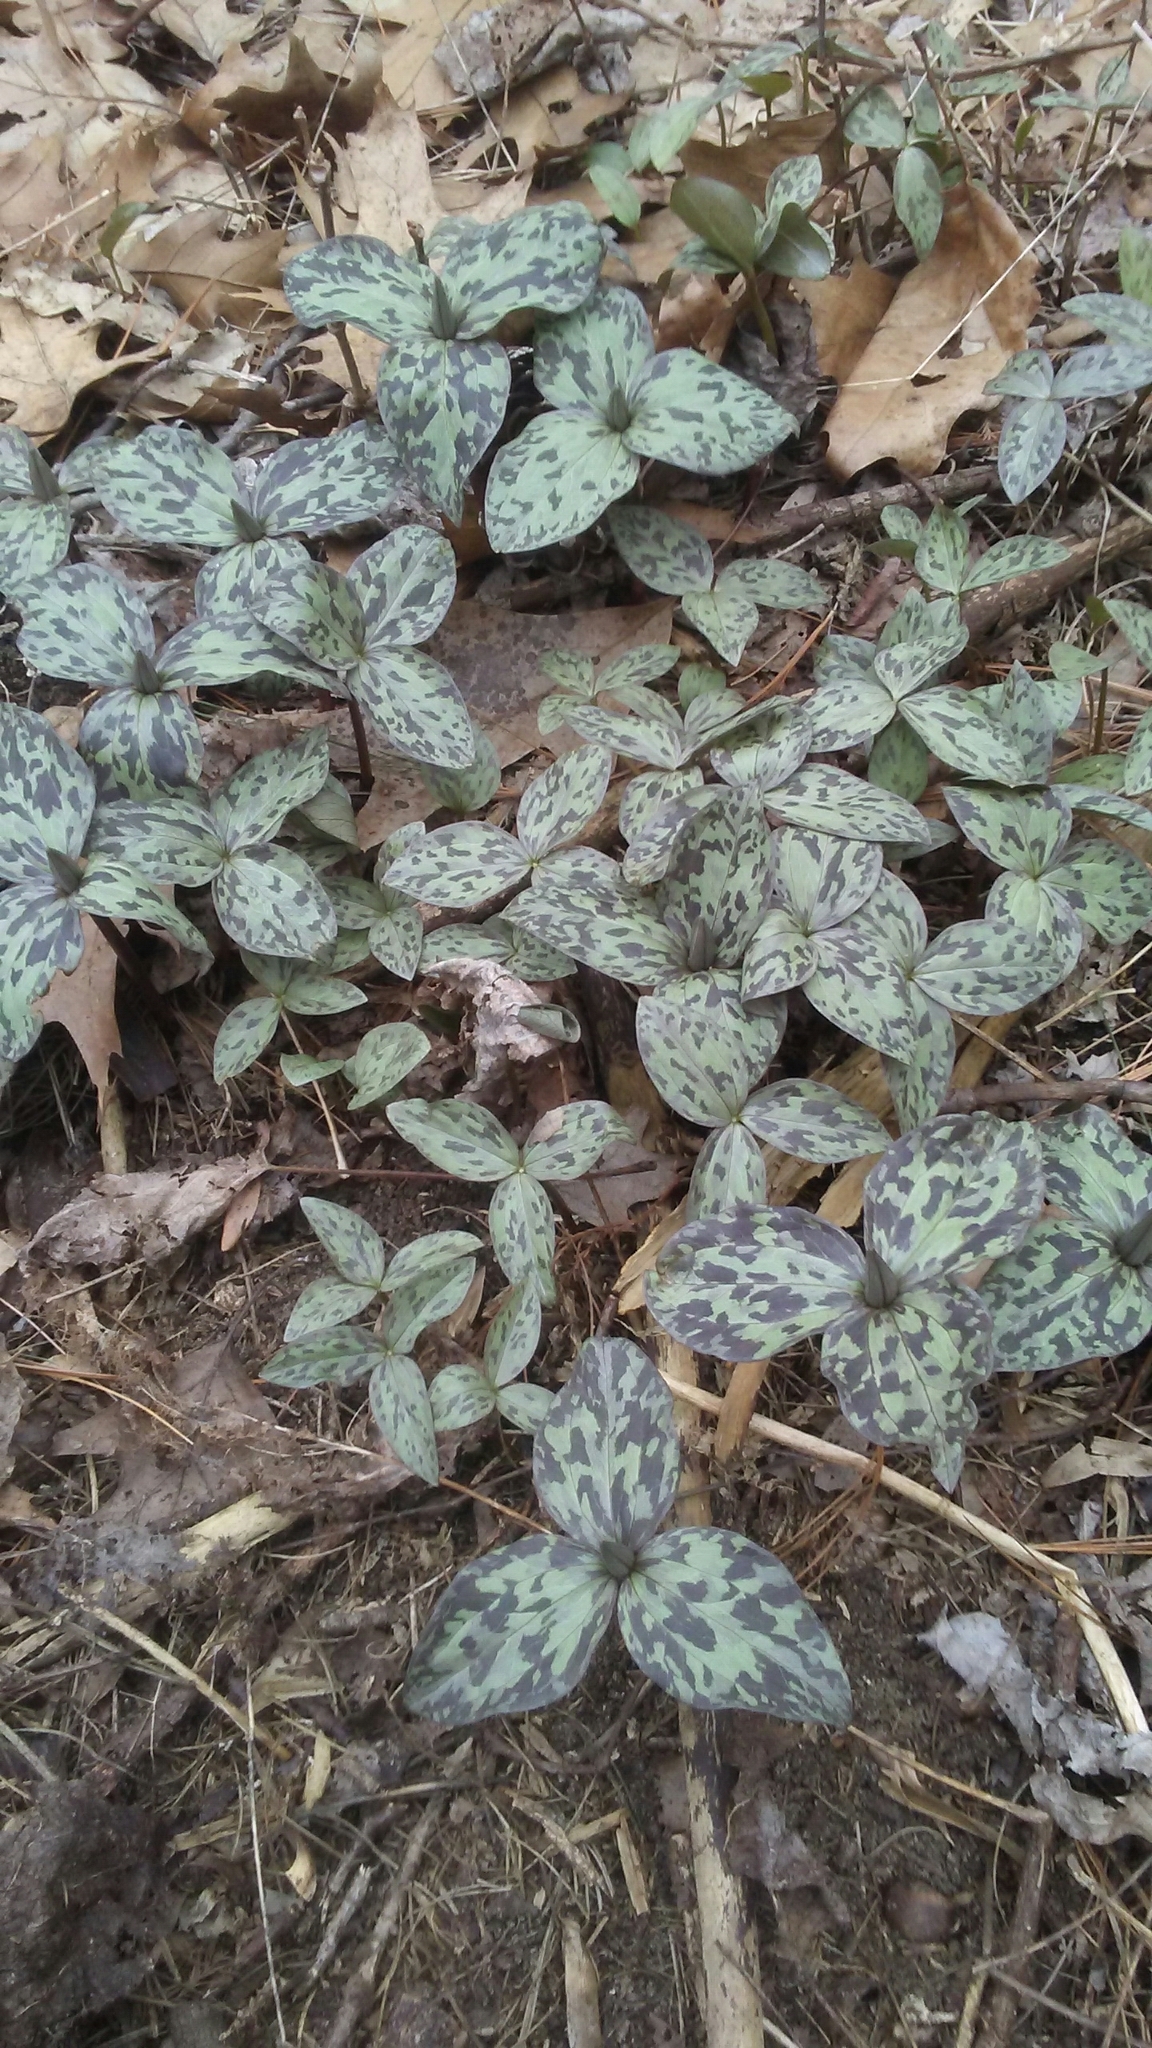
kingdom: Plantae
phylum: Tracheophyta
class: Liliopsida
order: Liliales
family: Melanthiaceae
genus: Trillium
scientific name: Trillium recurvatum
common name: Bloody butcher
